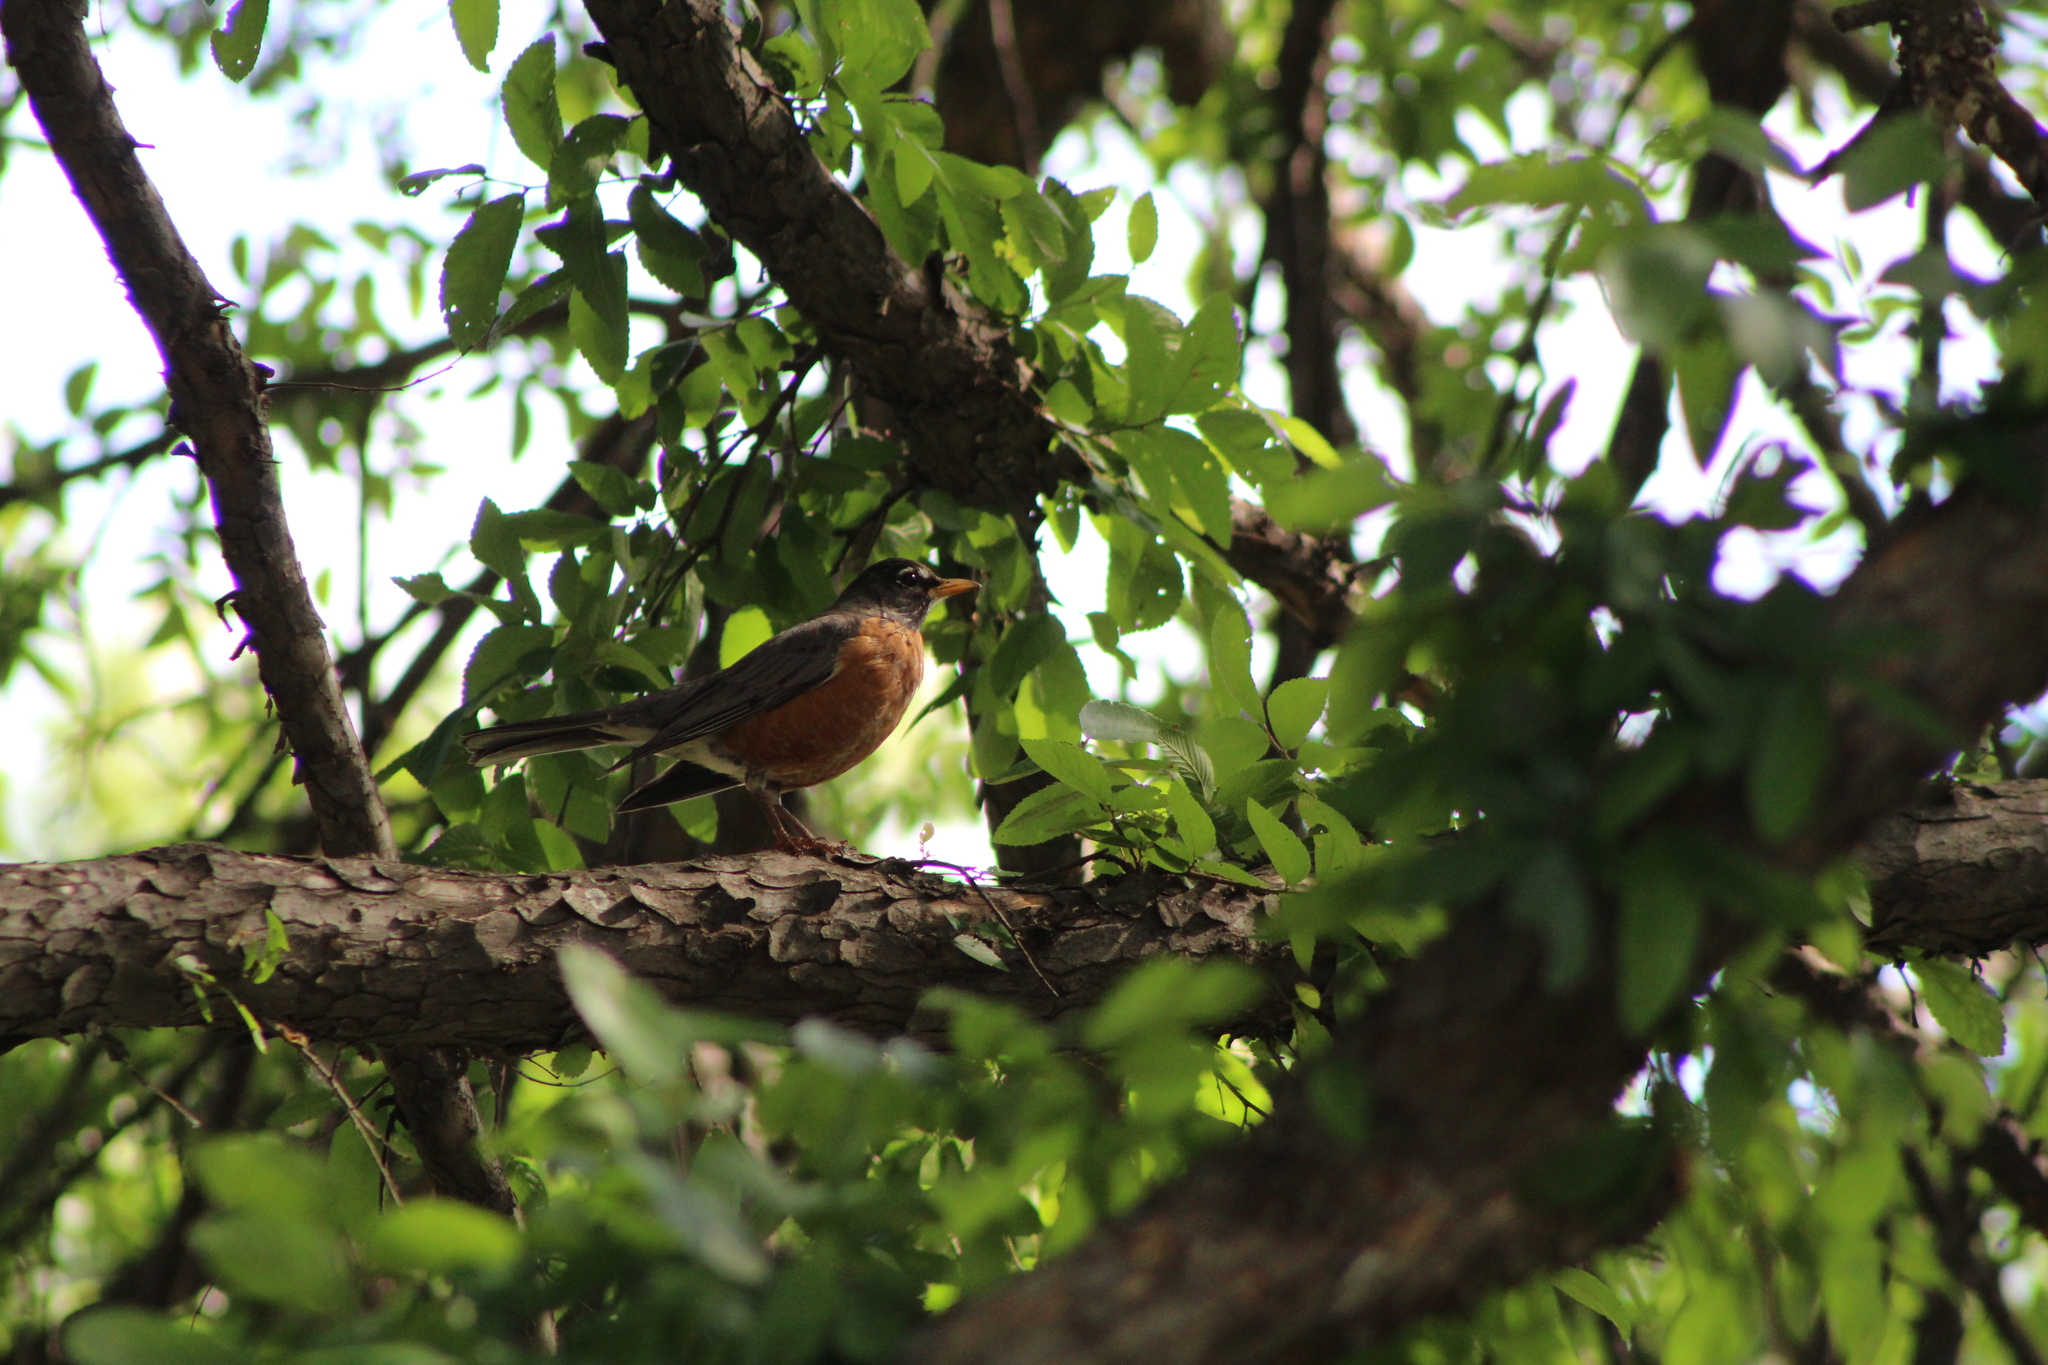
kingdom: Animalia
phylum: Chordata
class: Aves
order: Passeriformes
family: Turdidae
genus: Turdus
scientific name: Turdus migratorius
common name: American robin
